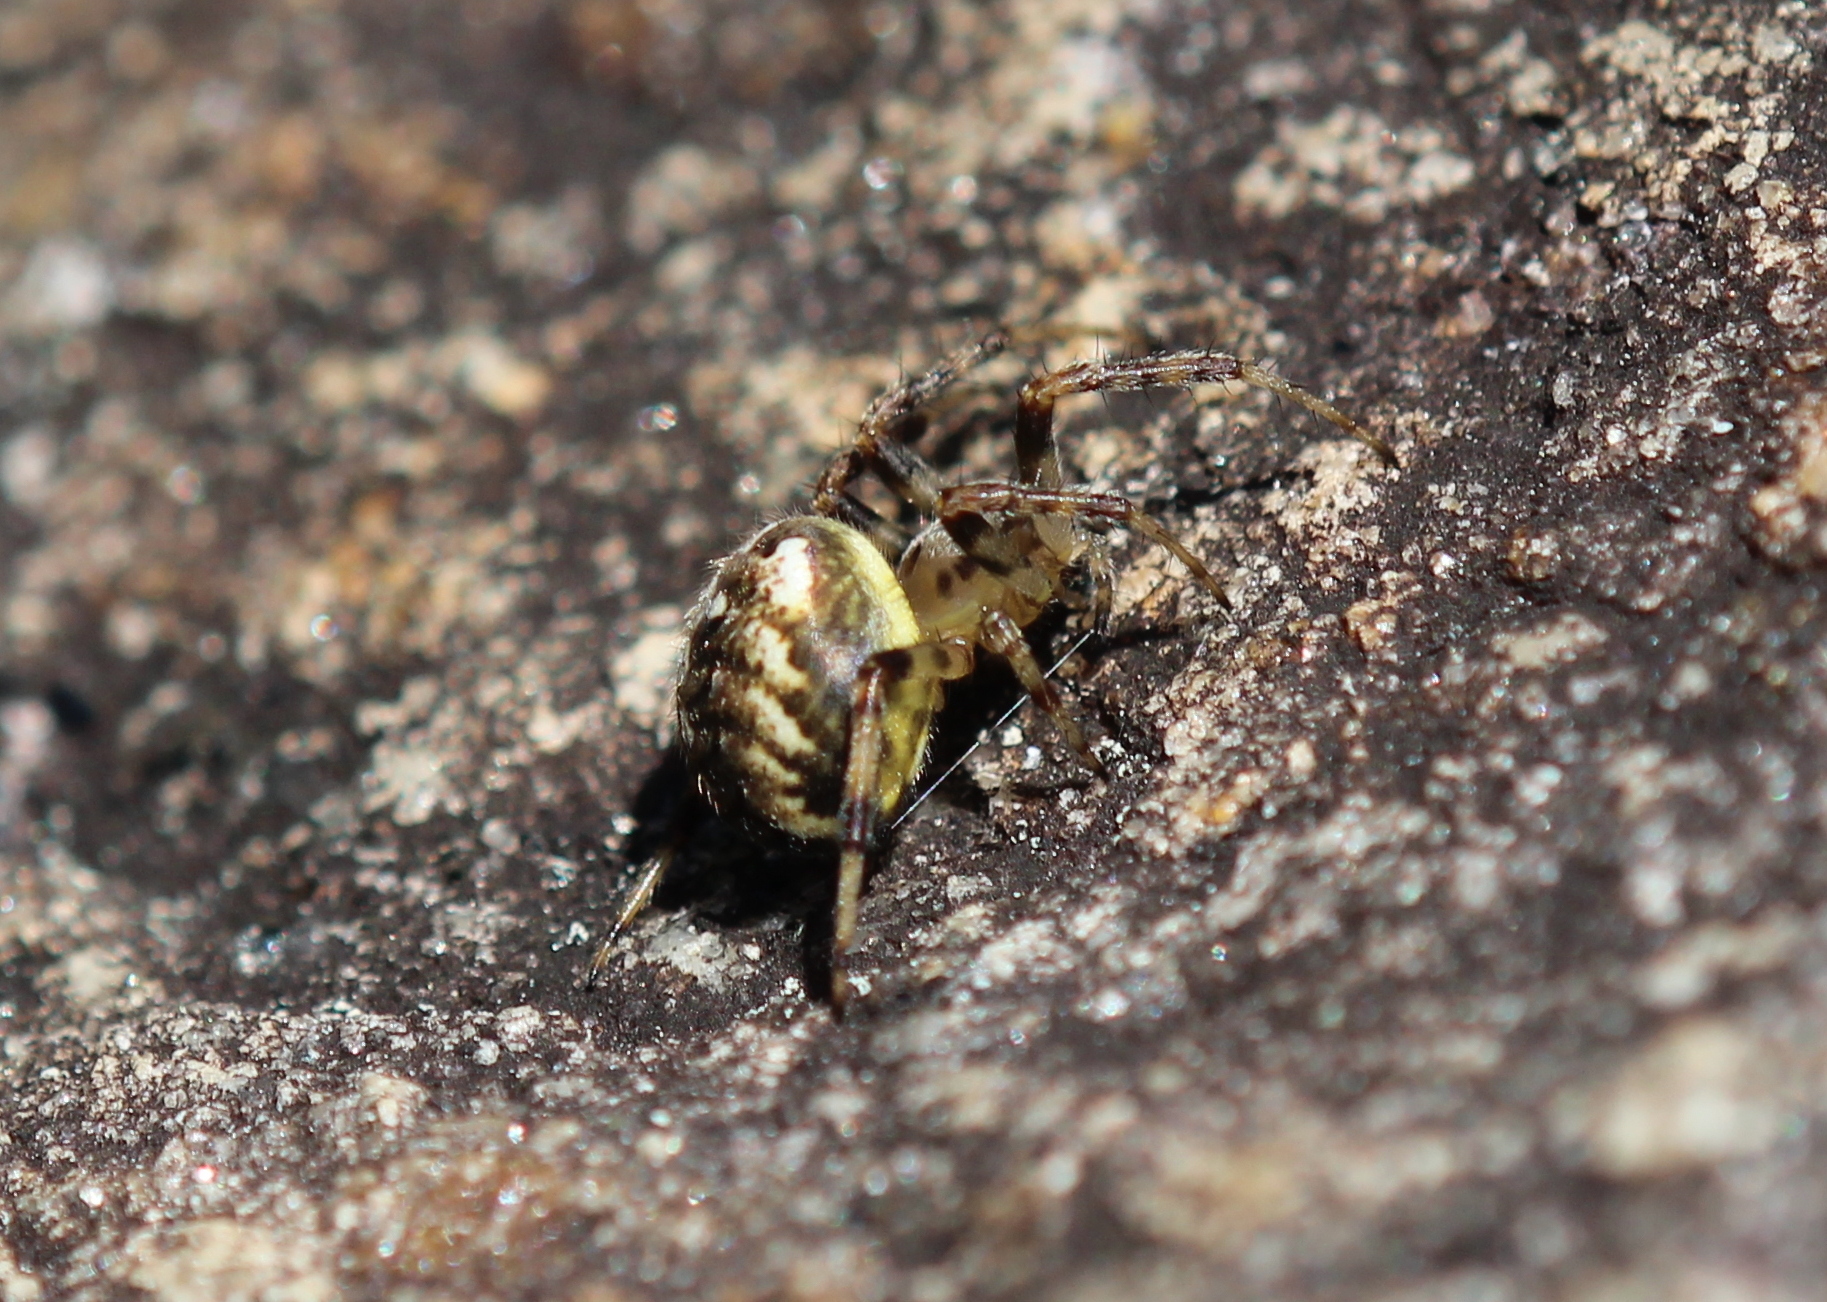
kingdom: Animalia
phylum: Arthropoda
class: Arachnida
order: Araneae
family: Araneidae
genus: Neoscona
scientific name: Neoscona arabesca
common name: Orb weavers
